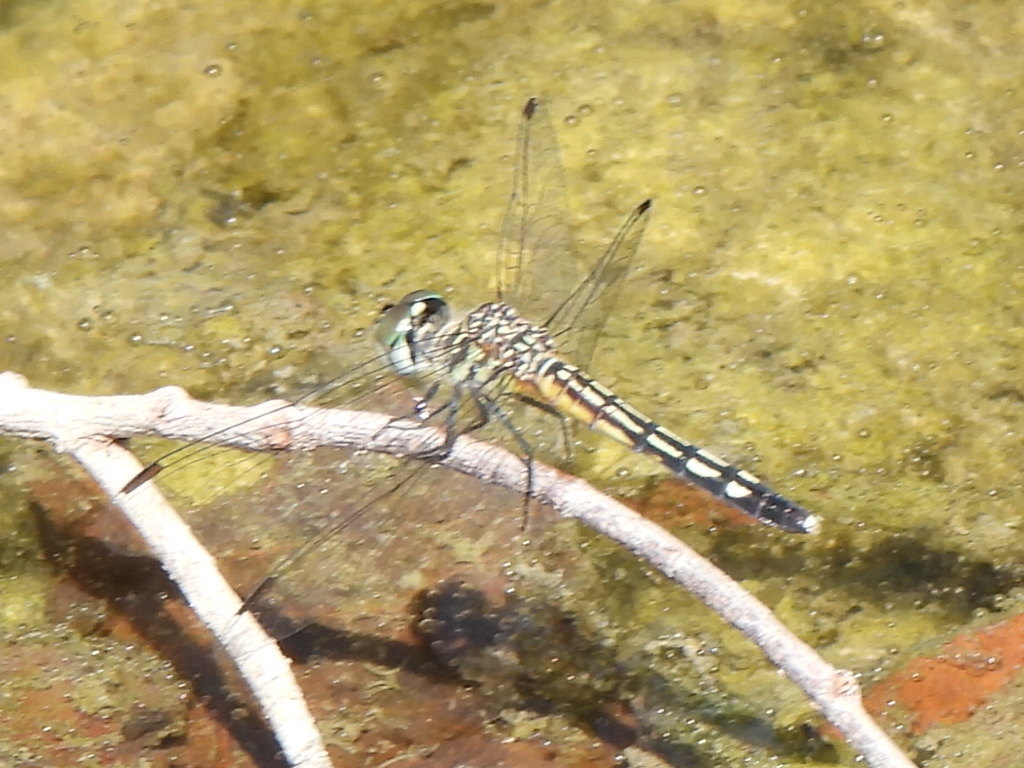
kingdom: Animalia
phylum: Arthropoda
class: Insecta
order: Odonata
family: Libellulidae
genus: Pachydiplax
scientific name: Pachydiplax longipennis
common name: Blue dasher
